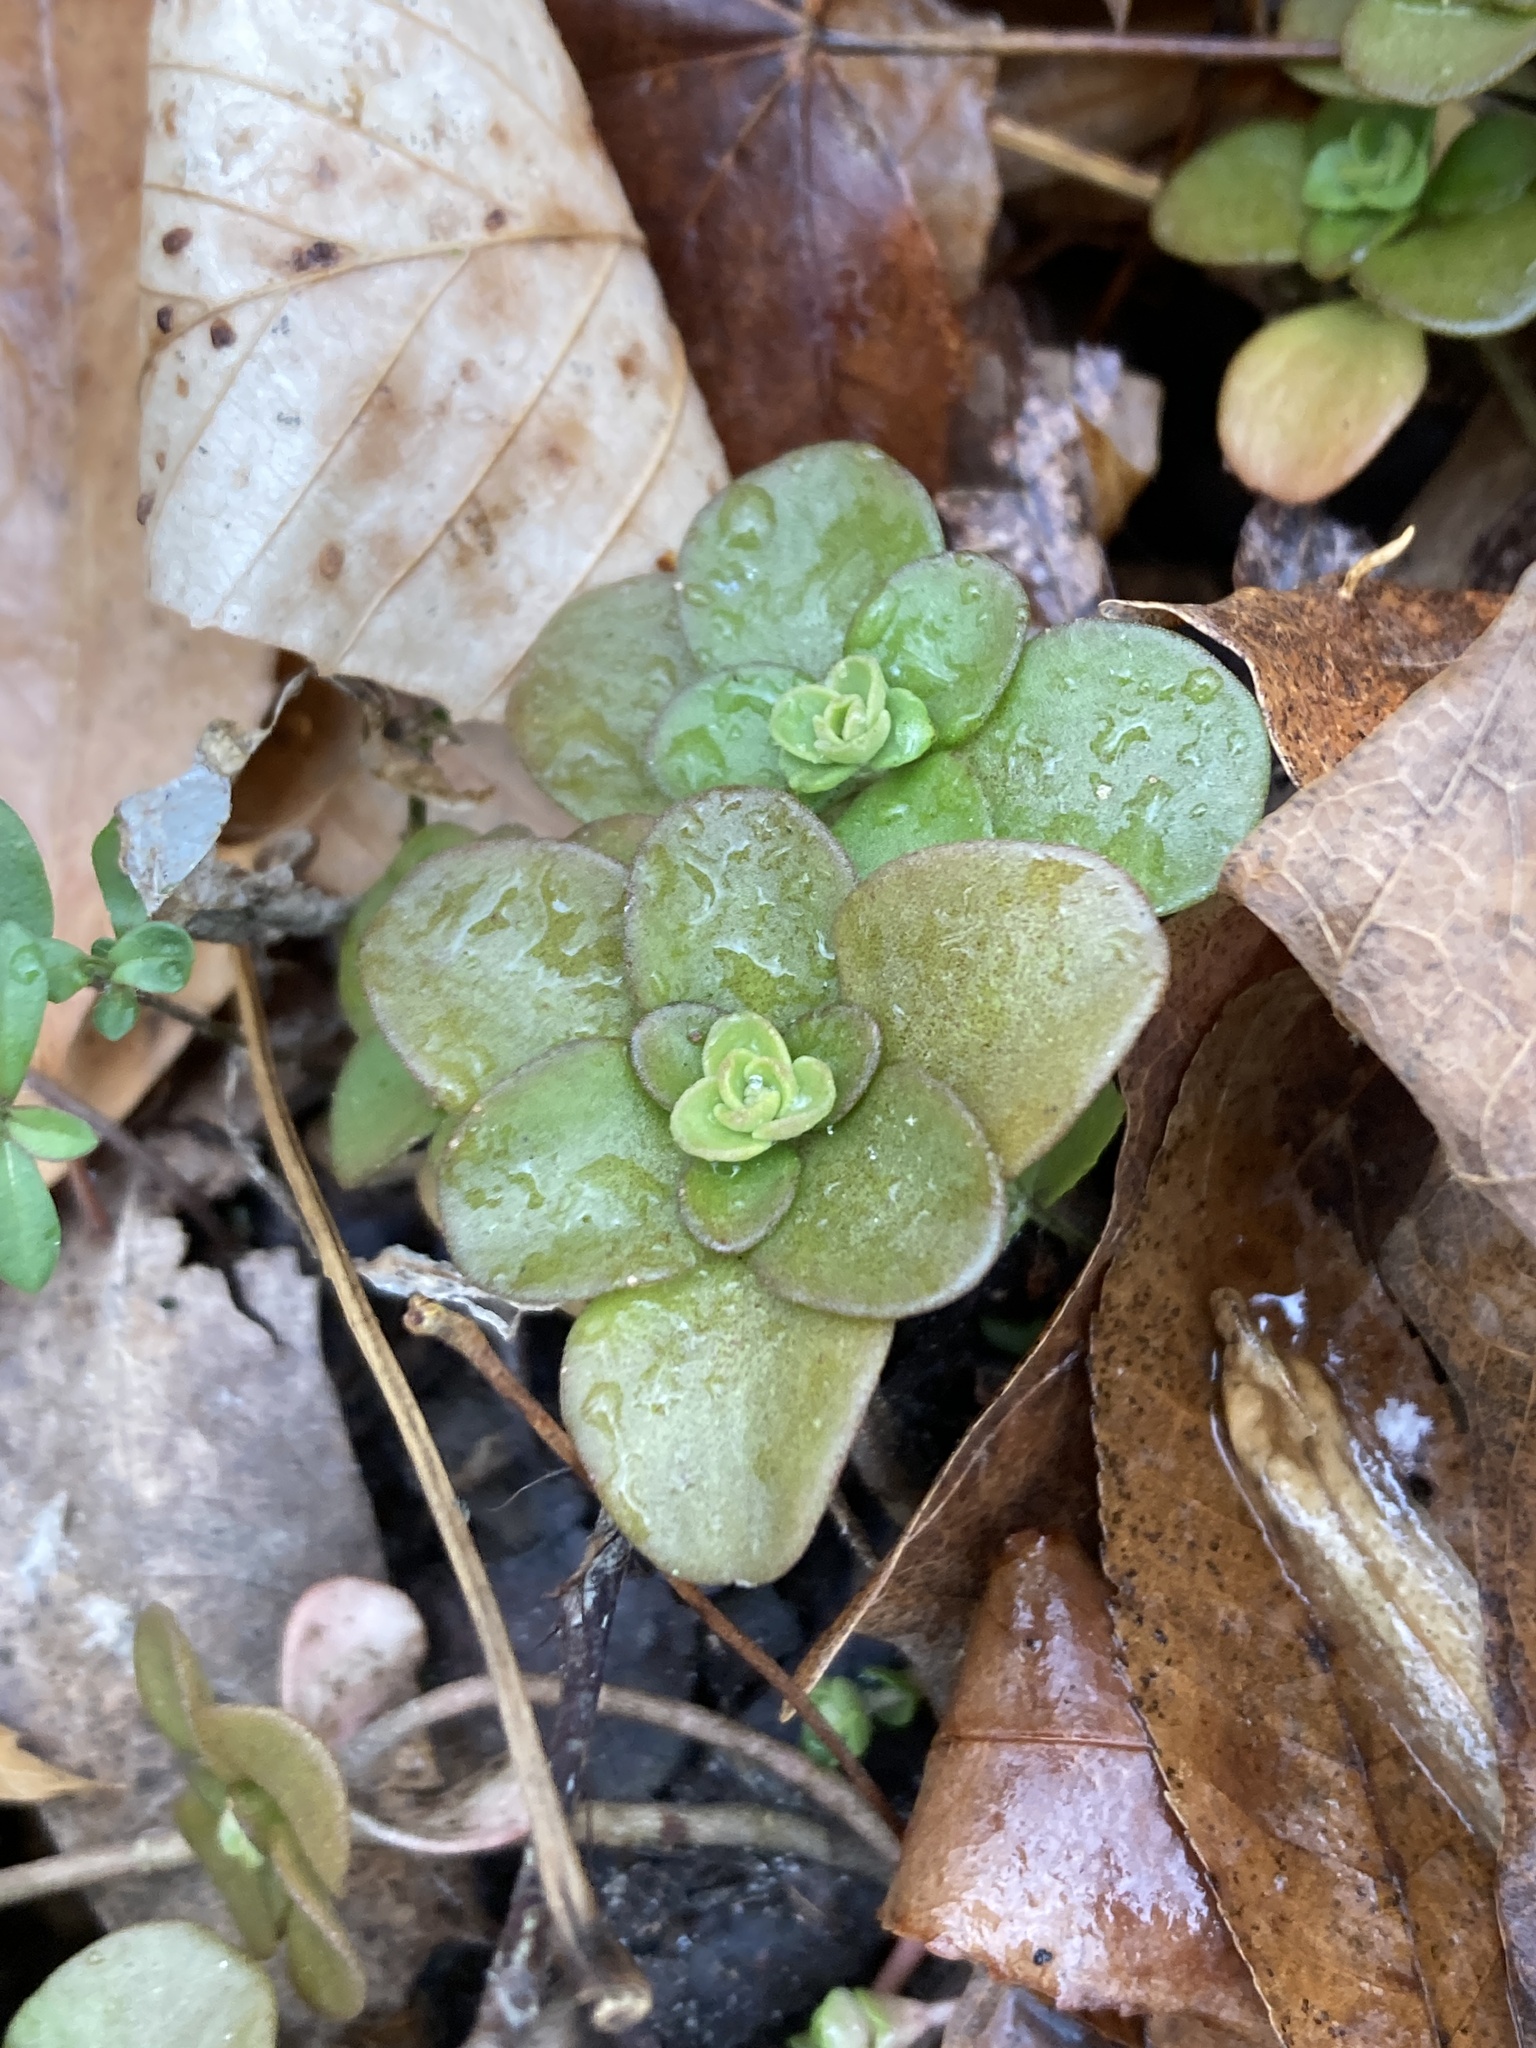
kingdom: Plantae
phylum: Tracheophyta
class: Magnoliopsida
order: Saxifragales
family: Crassulaceae
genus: Sedum
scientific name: Sedum ternatum
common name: Wild stonecrop
